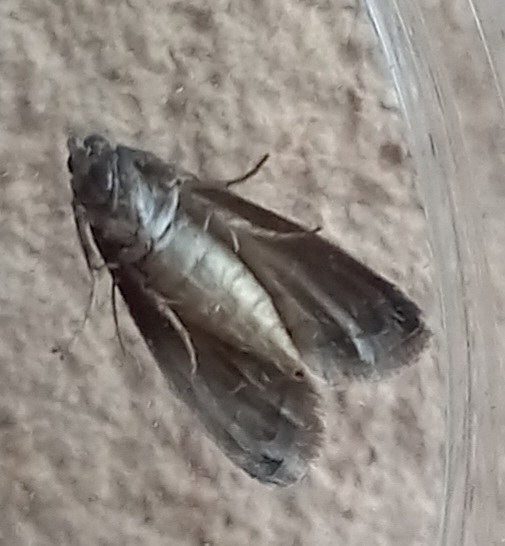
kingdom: Animalia
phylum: Arthropoda
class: Insecta
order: Lepidoptera
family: Pyralidae
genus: Ectomyelois
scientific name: Ectomyelois ceratoniae
